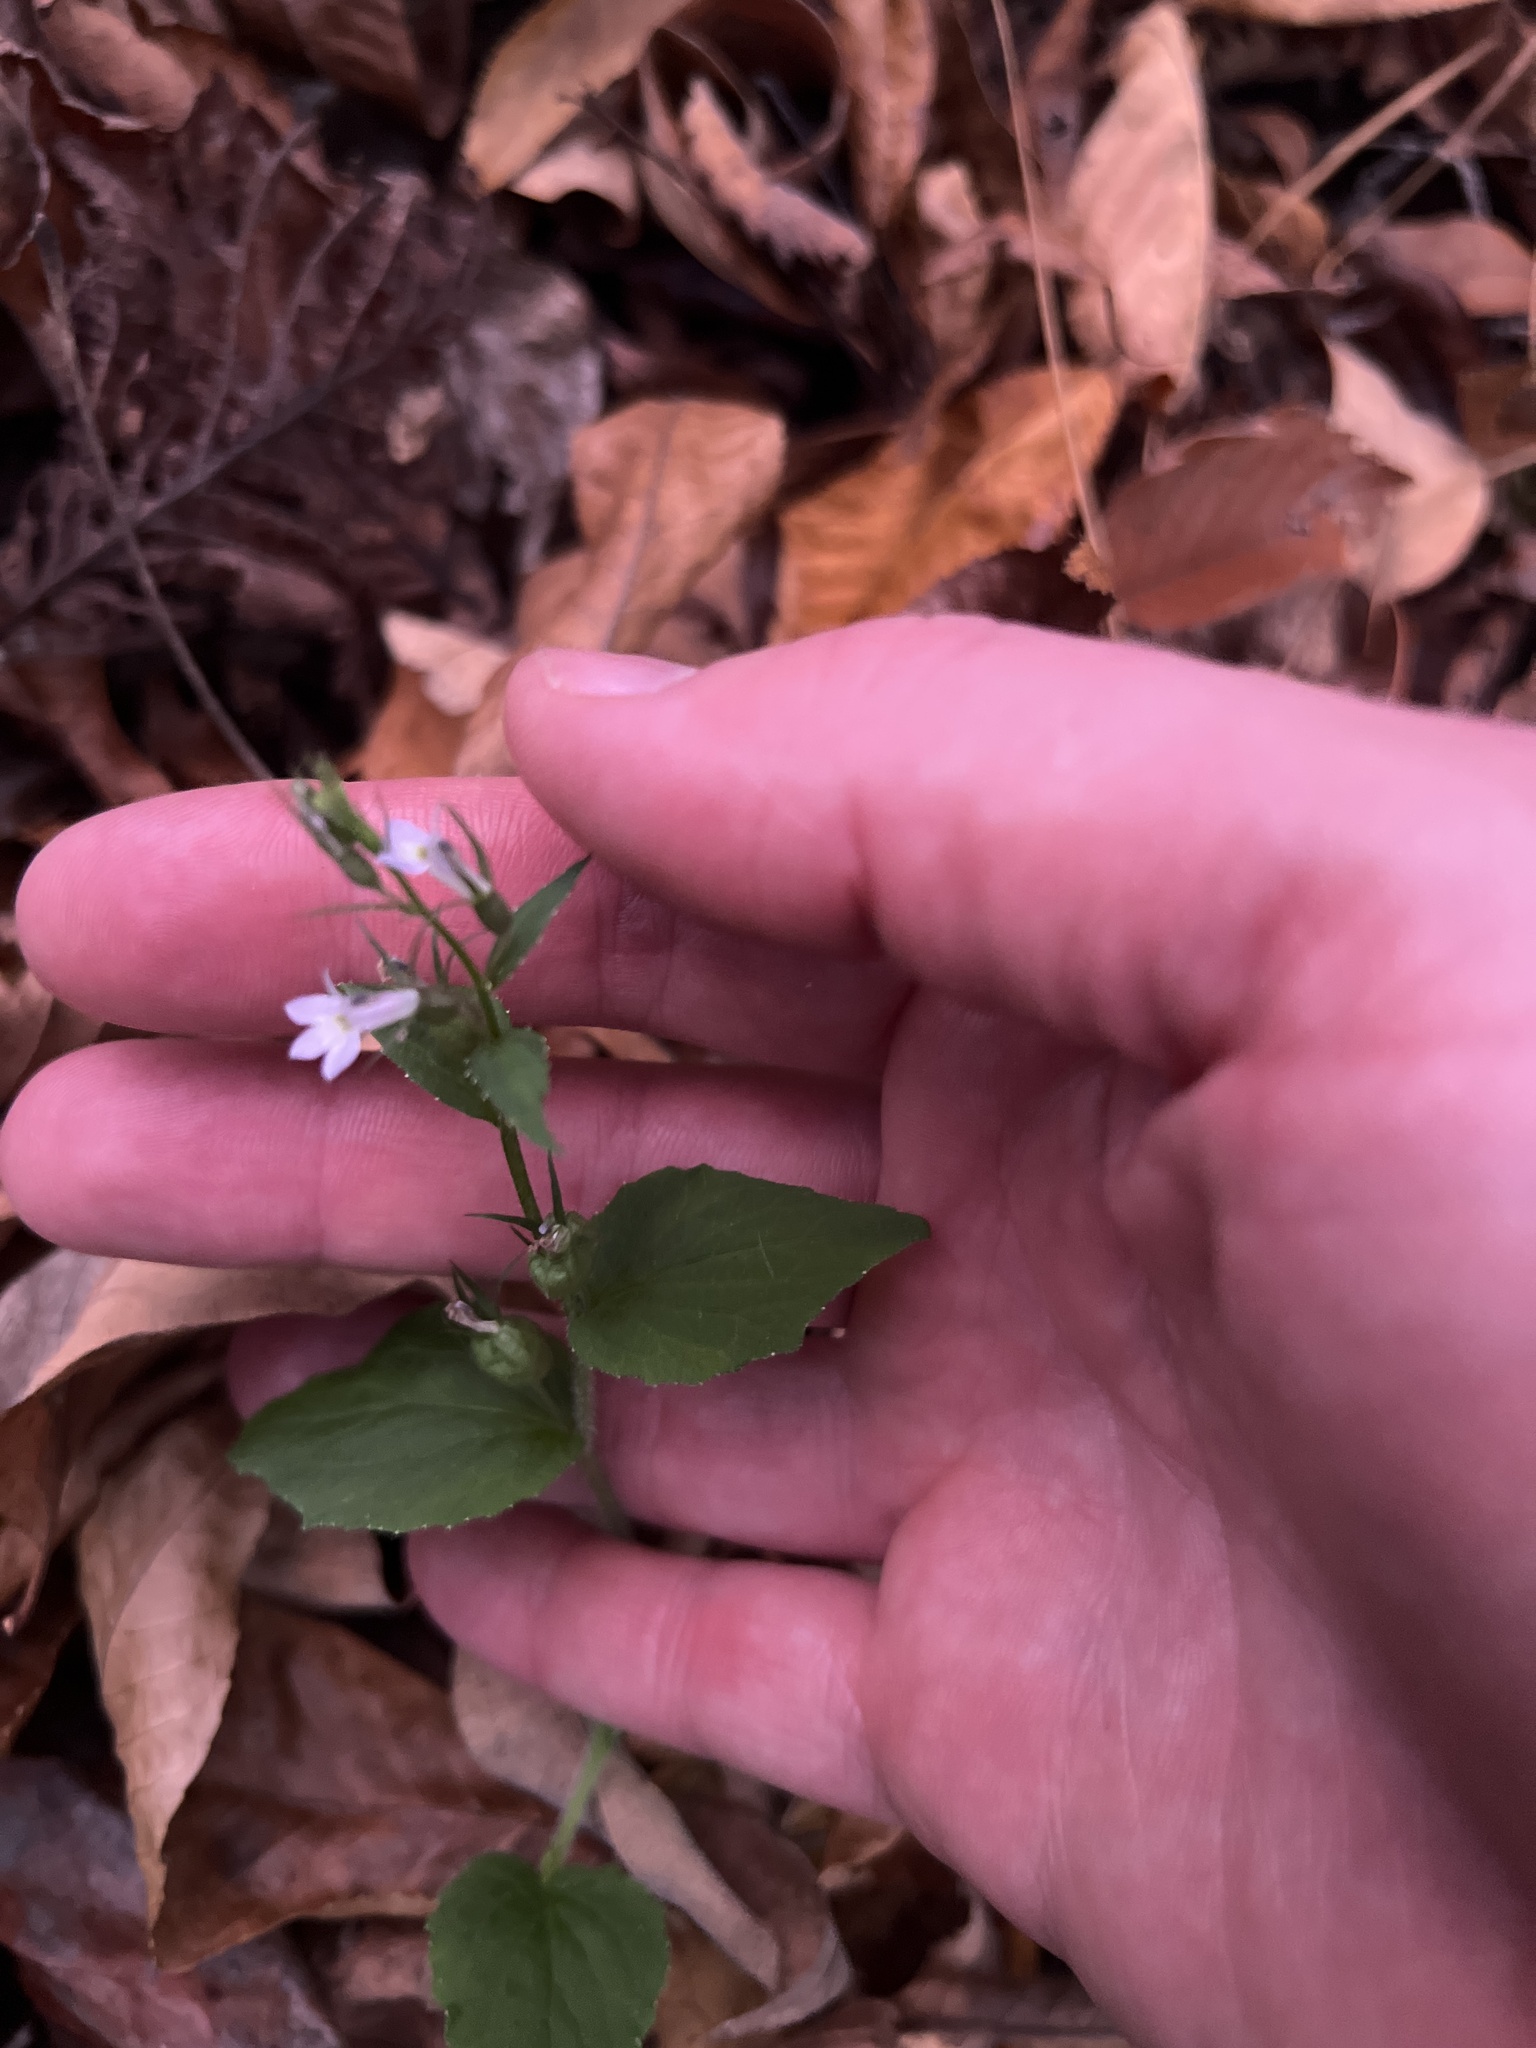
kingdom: Plantae
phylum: Tracheophyta
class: Magnoliopsida
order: Asterales
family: Campanulaceae
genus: Lobelia
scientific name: Lobelia inflata
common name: Indian tobacco
